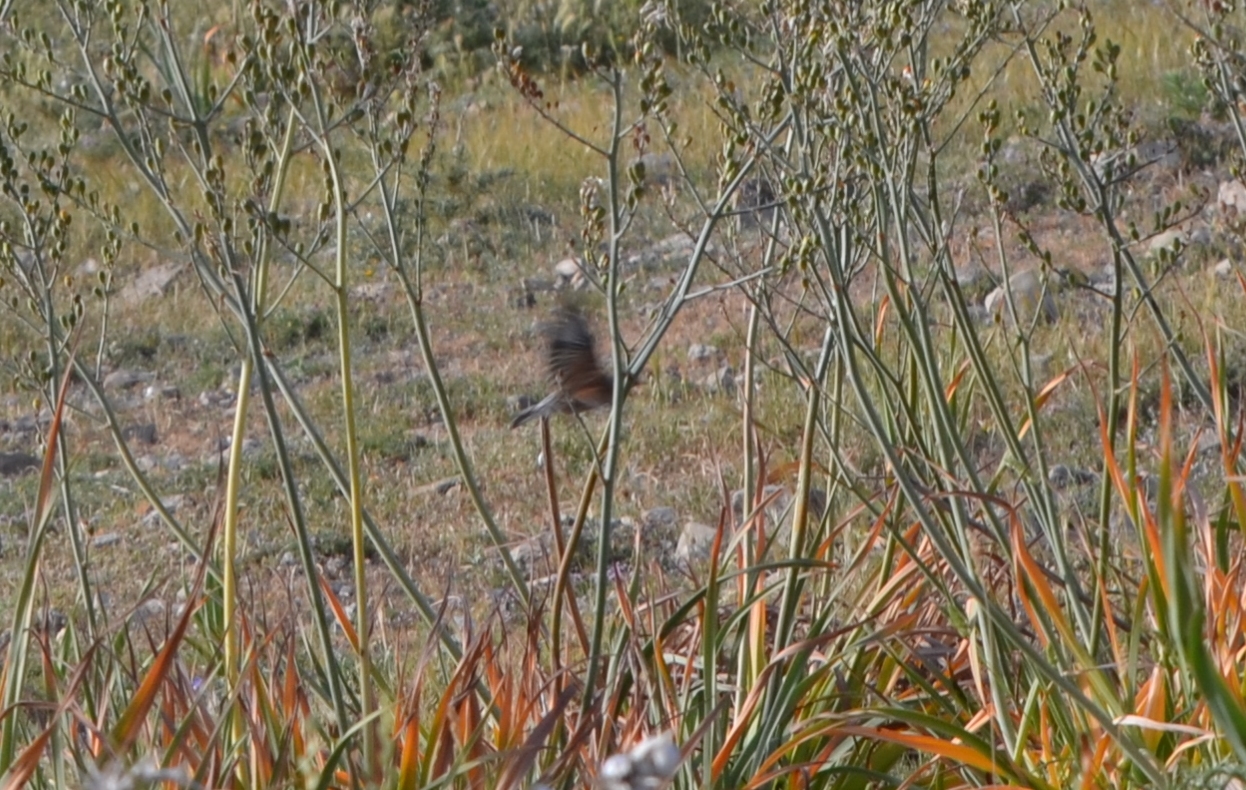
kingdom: Animalia
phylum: Chordata
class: Aves
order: Passeriformes
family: Fringillidae
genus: Linaria
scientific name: Linaria cannabina
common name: Common linnet
